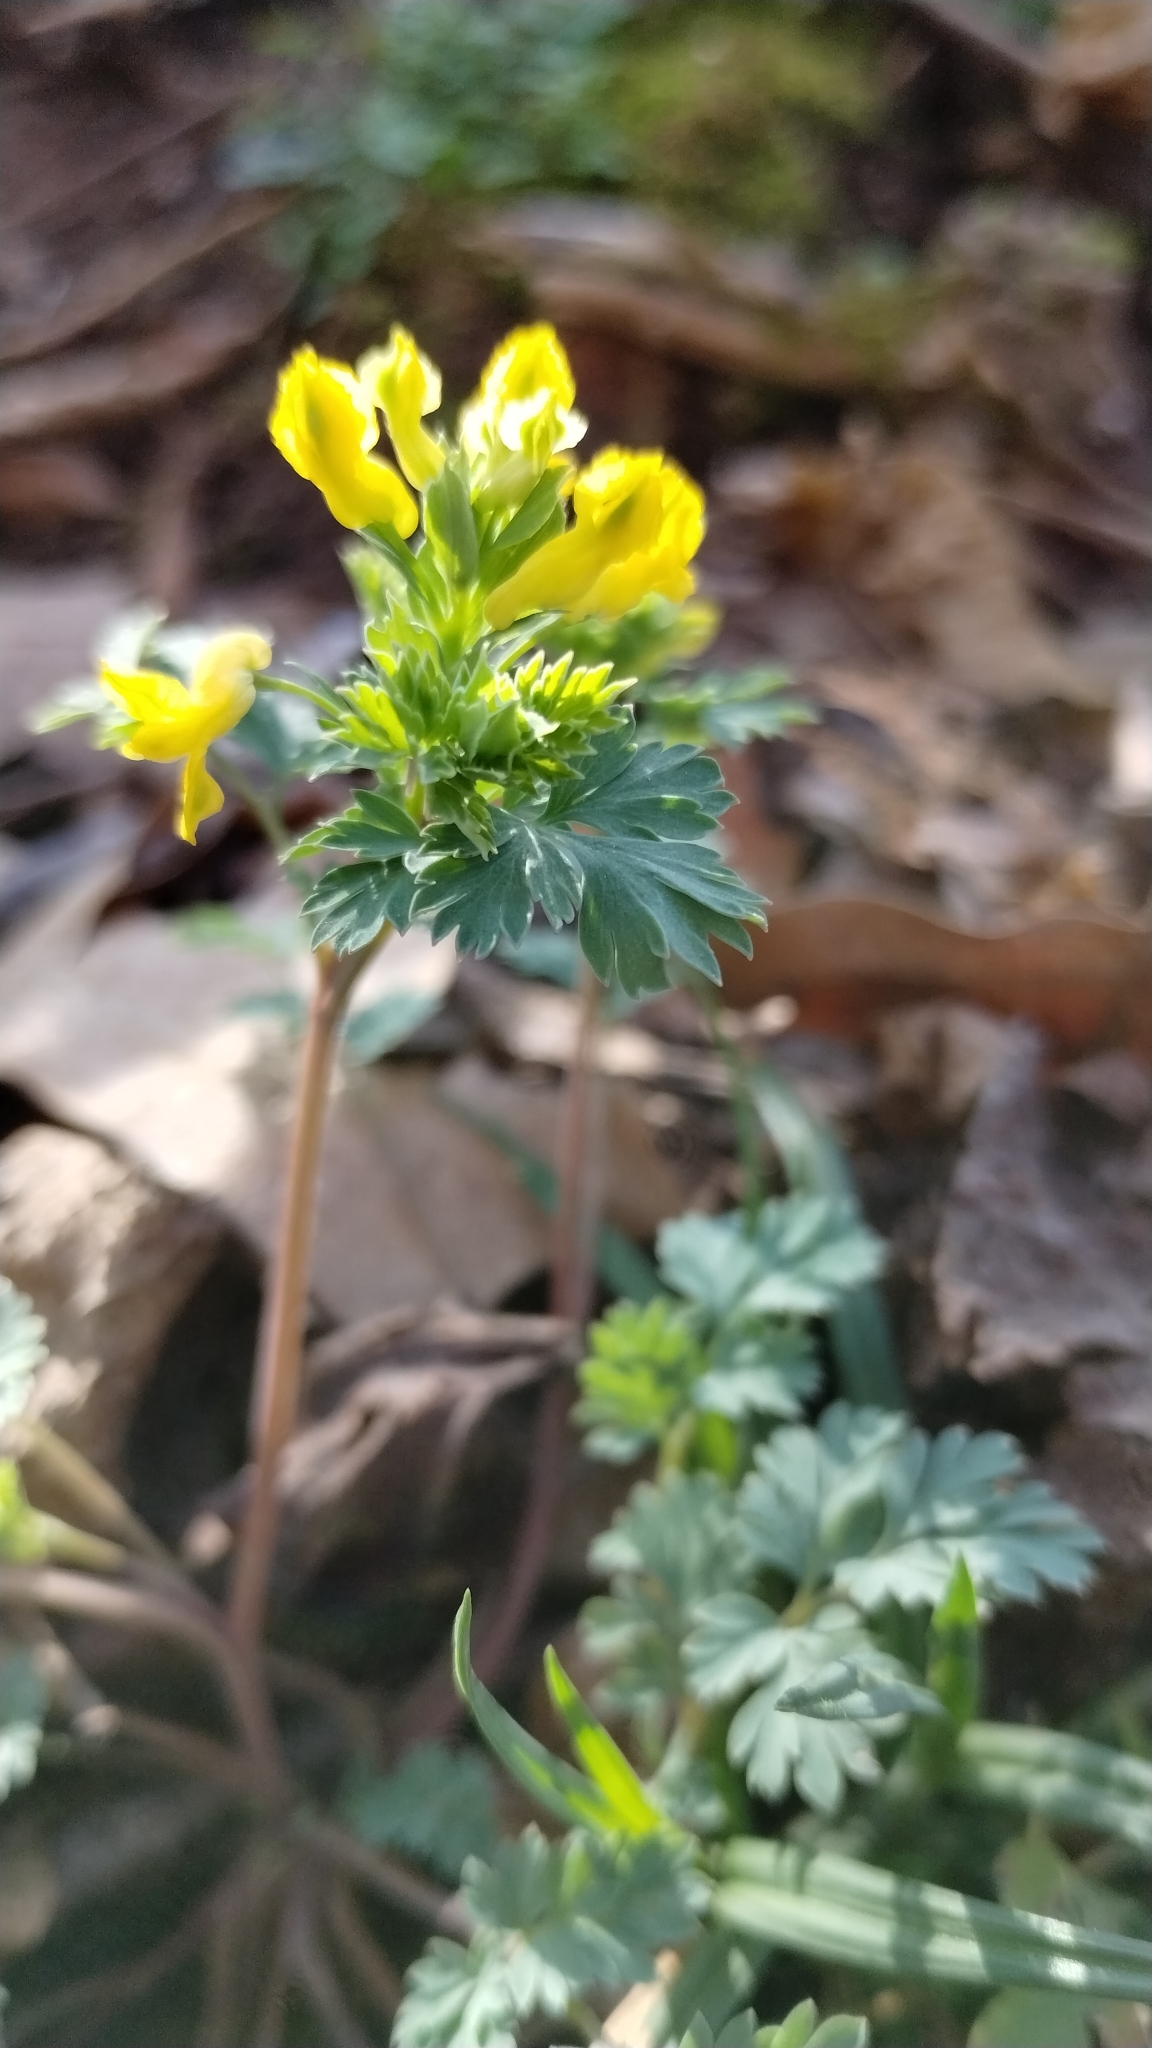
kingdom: Plantae
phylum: Tracheophyta
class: Magnoliopsida
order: Ranunculales
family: Papaveraceae
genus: Corydalis
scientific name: Corydalis flavula
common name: Yellow corydalis
